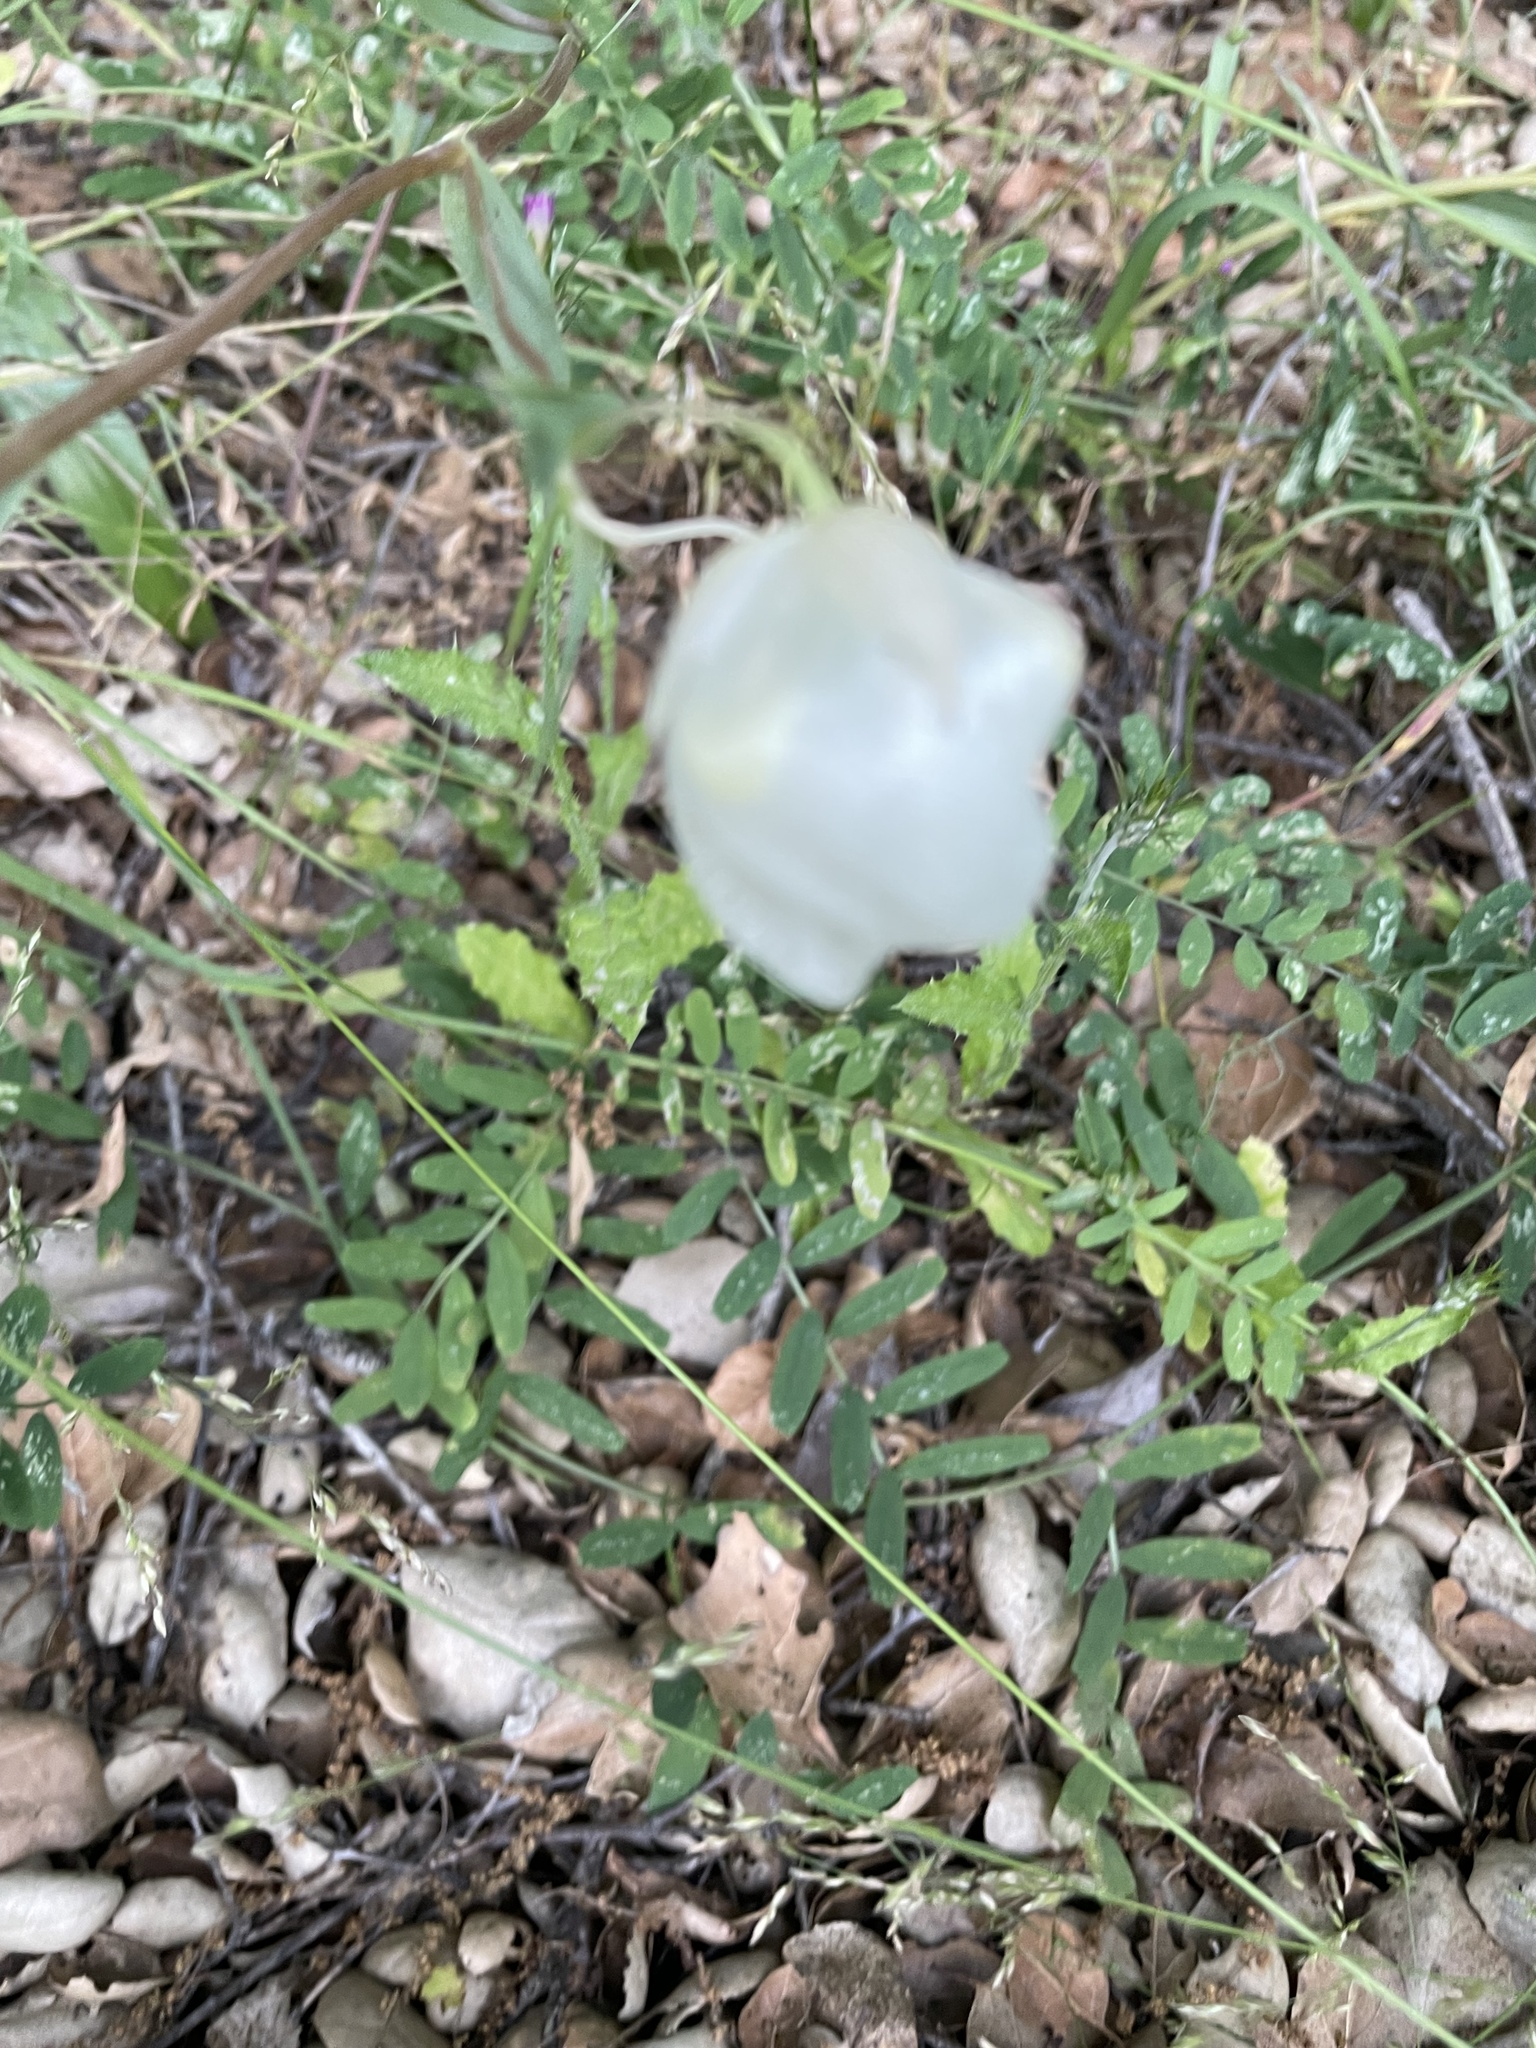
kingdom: Plantae
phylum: Tracheophyta
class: Liliopsida
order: Liliales
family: Liliaceae
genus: Calochortus
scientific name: Calochortus albus
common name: Fairy-lantern
